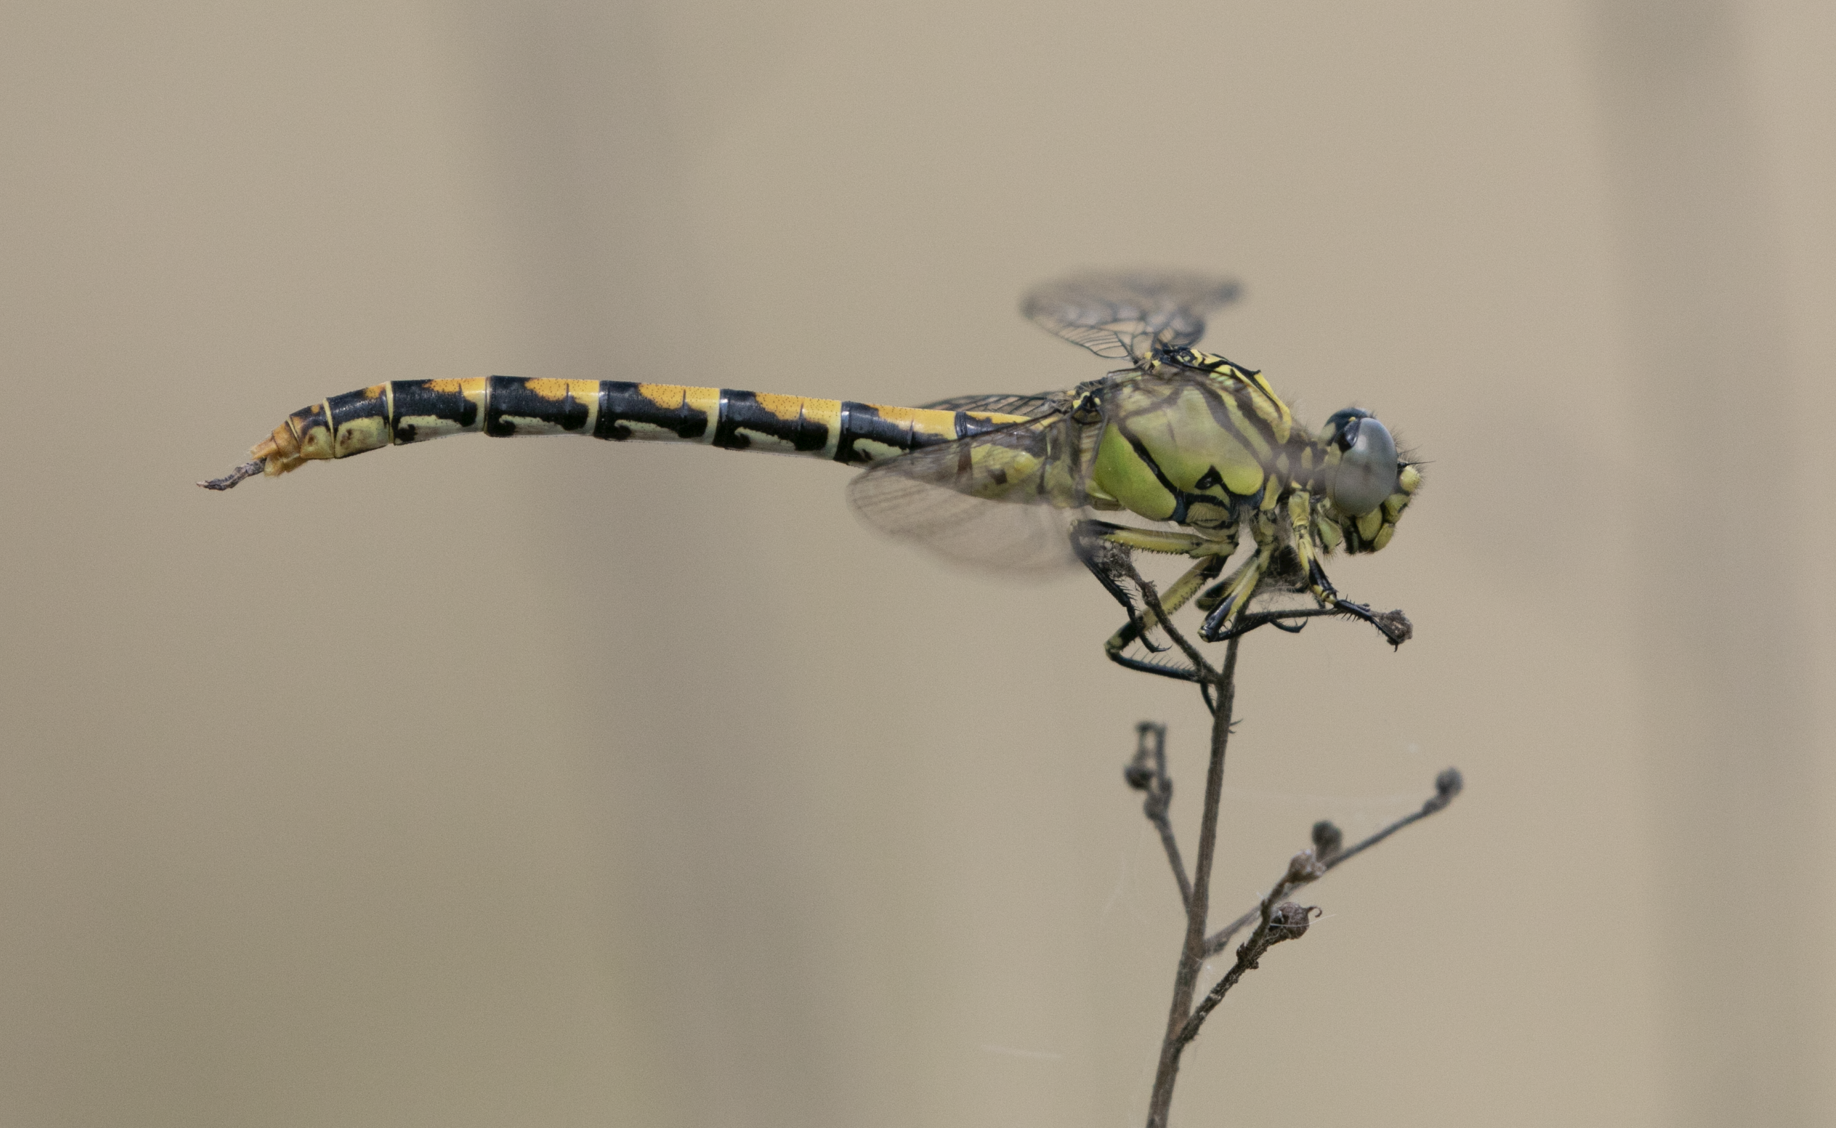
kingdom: Animalia
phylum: Arthropoda
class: Insecta
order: Odonata
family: Gomphidae
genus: Onychogomphus
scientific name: Onychogomphus forcipatus
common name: Small pincertail
